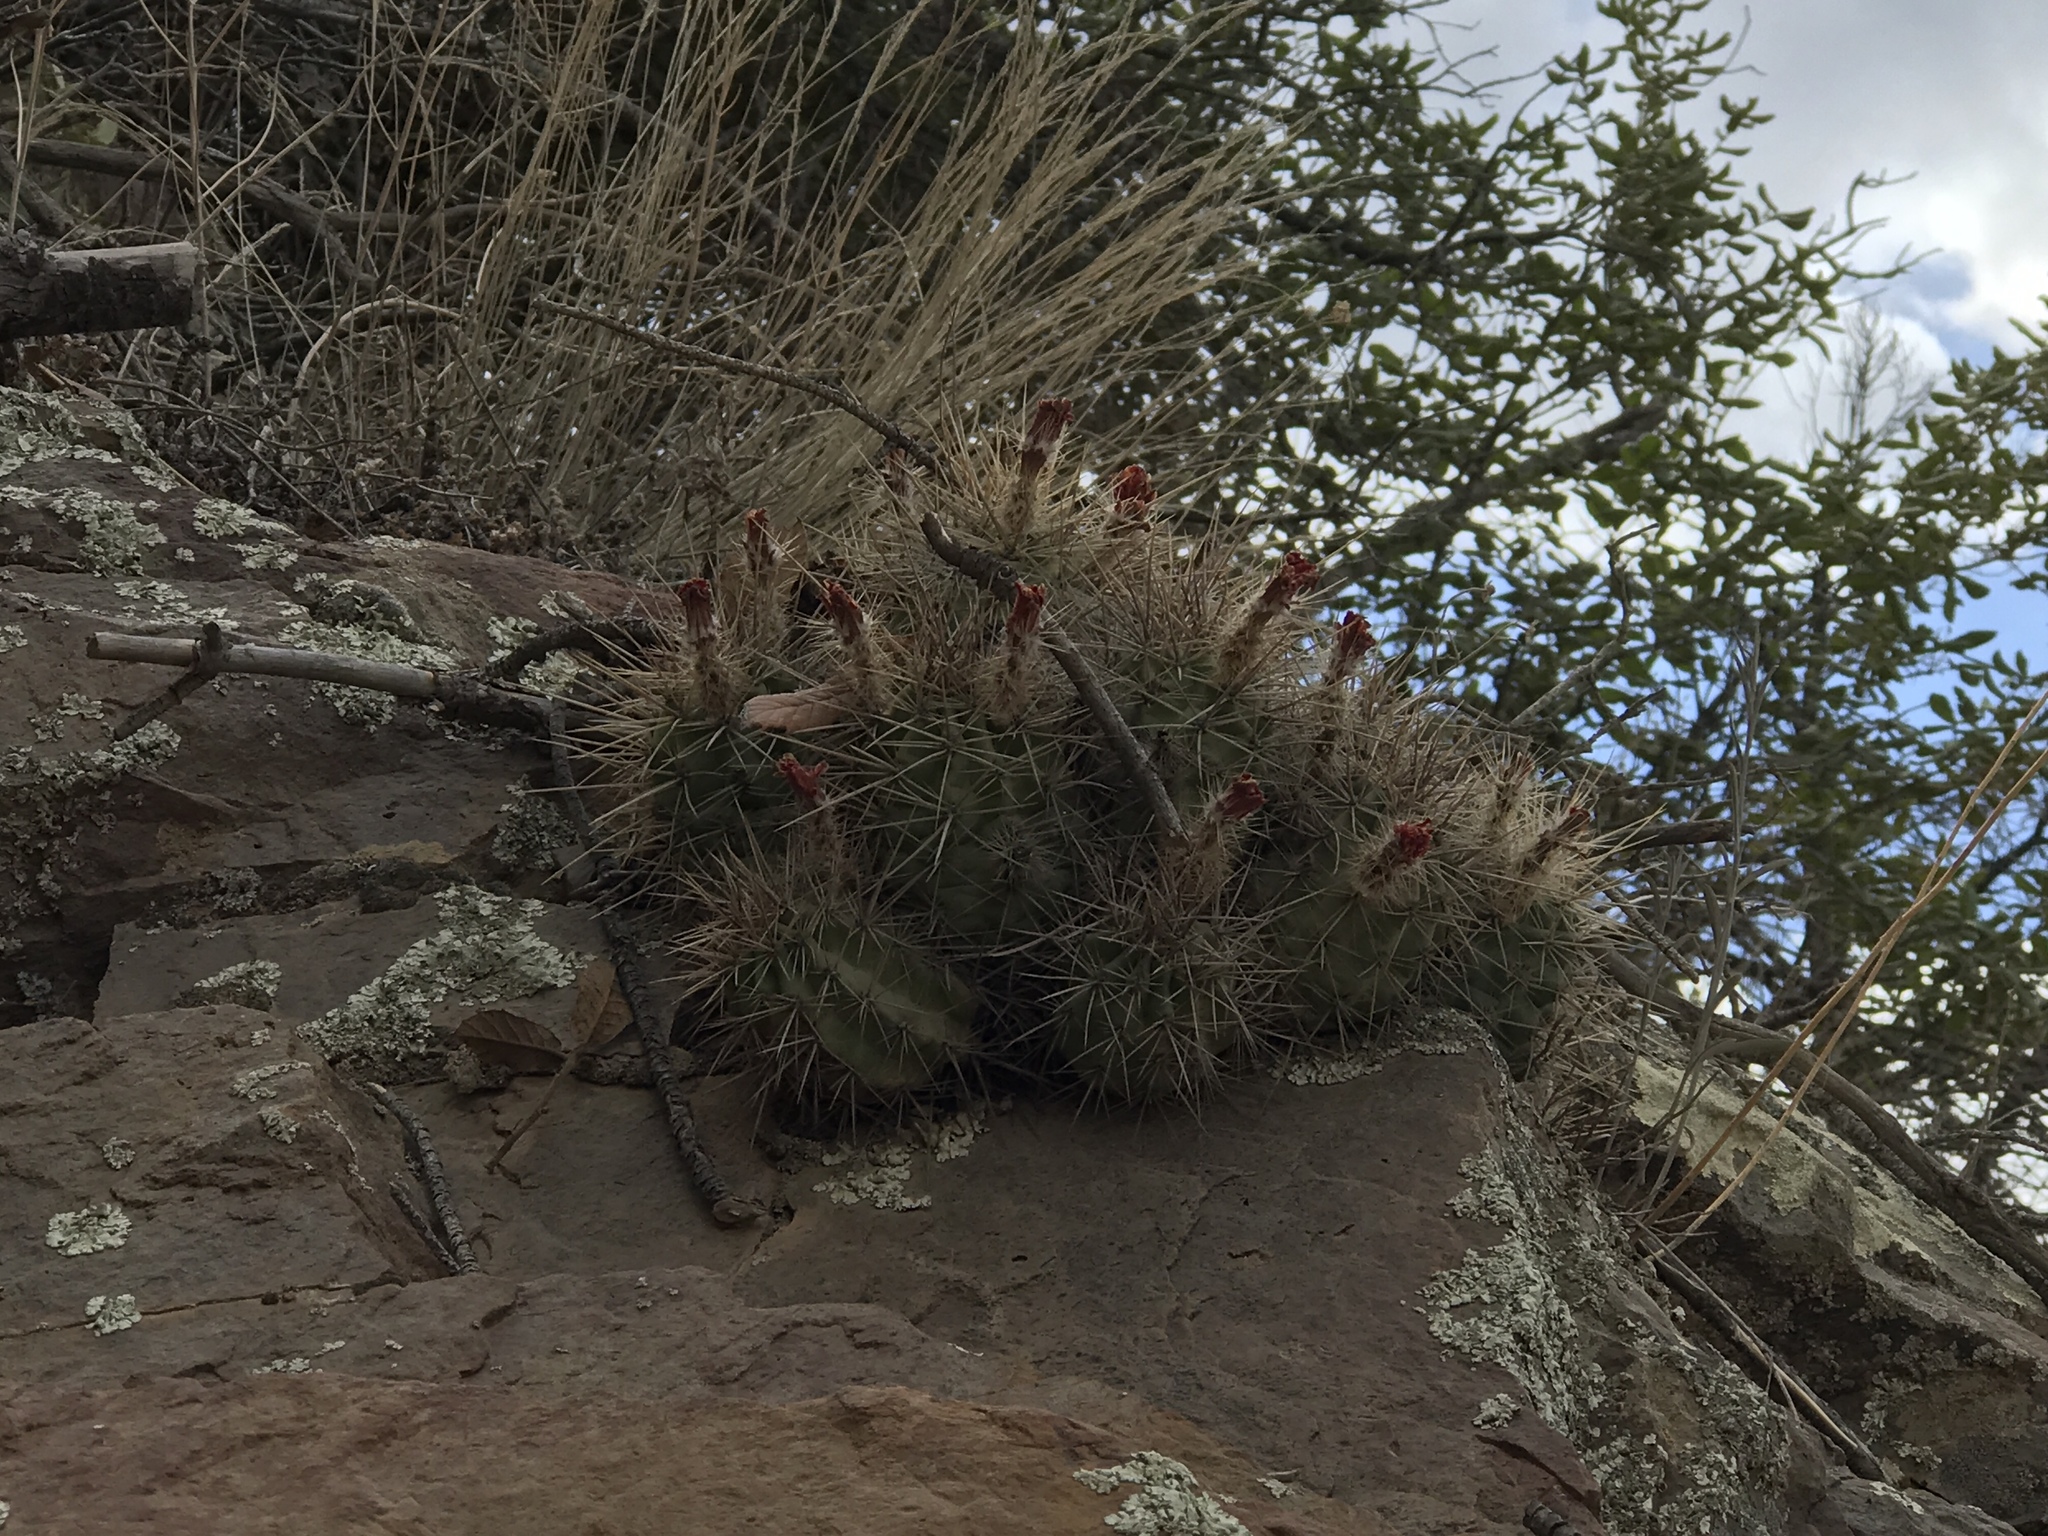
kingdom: Plantae
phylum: Tracheophyta
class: Magnoliopsida
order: Caryophyllales
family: Cactaceae
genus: Echinocereus
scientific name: Echinocereus coccineus
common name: Scarlet hedgehog cactus
